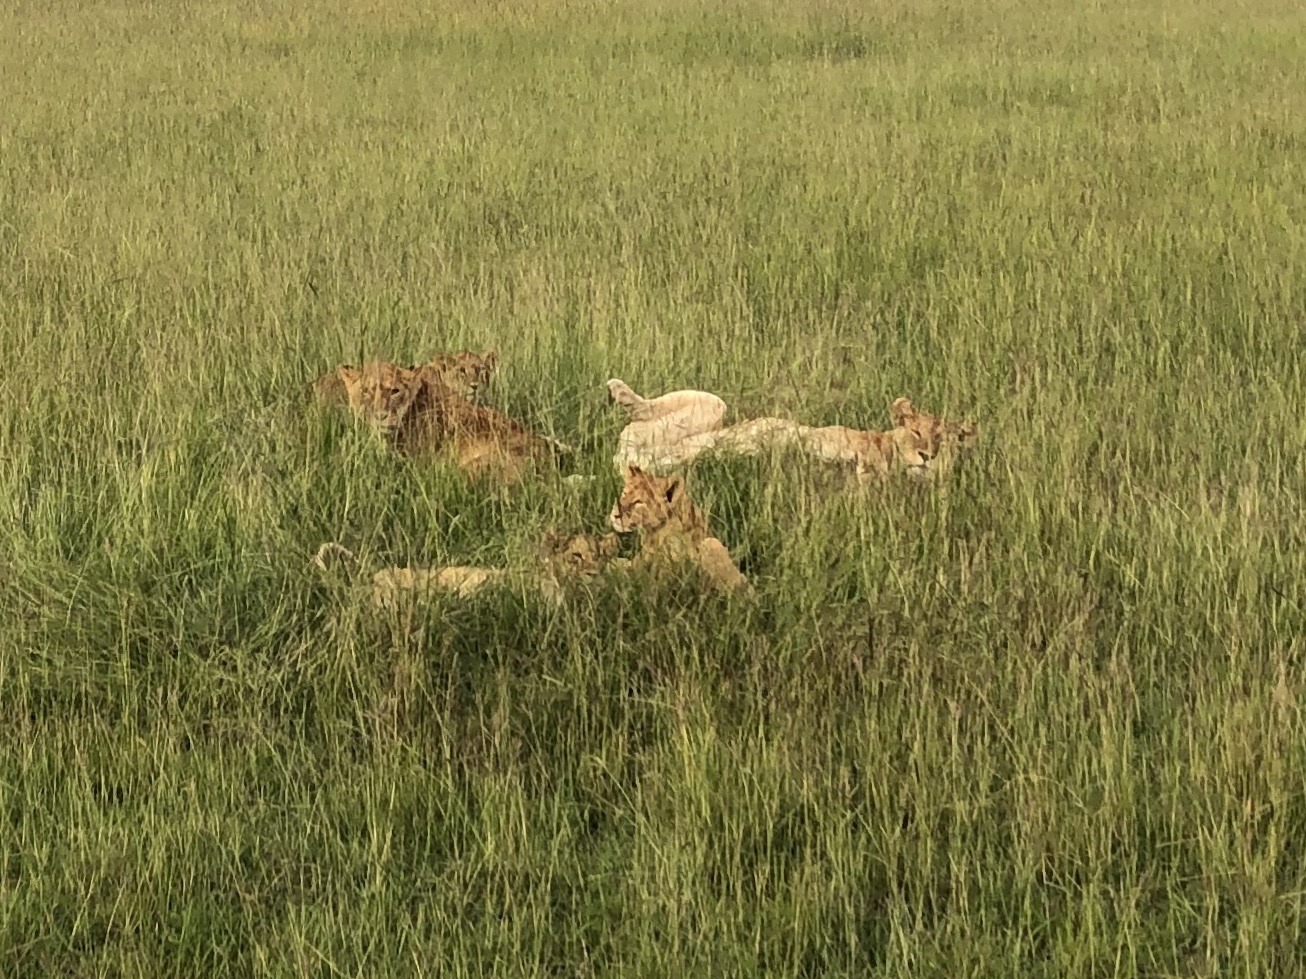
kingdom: Animalia
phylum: Chordata
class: Mammalia
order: Carnivora
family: Felidae
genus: Panthera
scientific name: Panthera leo
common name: Lion
